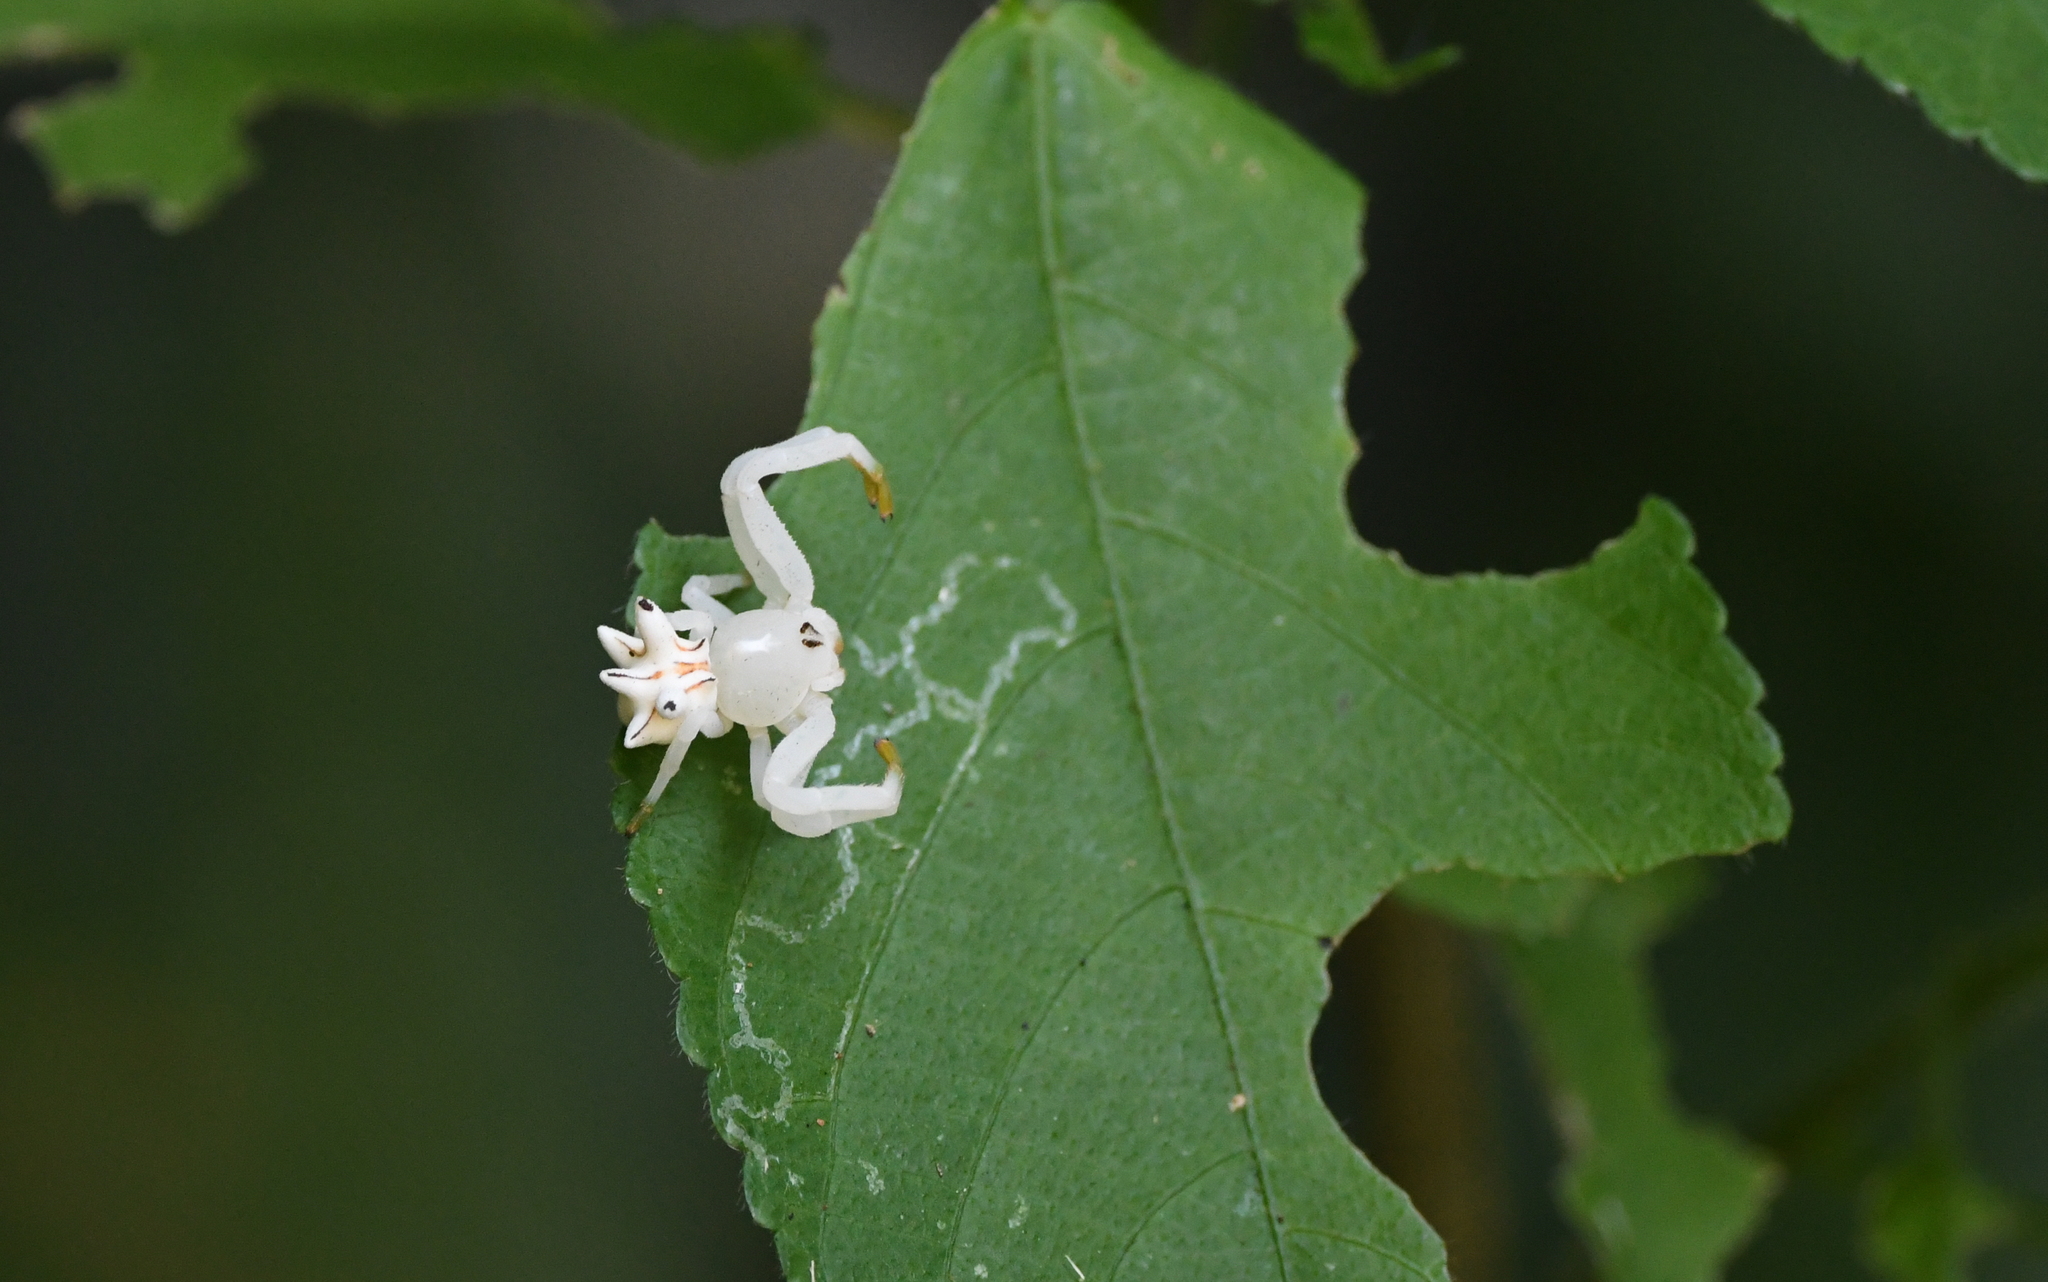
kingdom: Animalia
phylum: Arthropoda
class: Arachnida
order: Araneae
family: Thomisidae
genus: Epicadus
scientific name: Epicadus heterogaster
